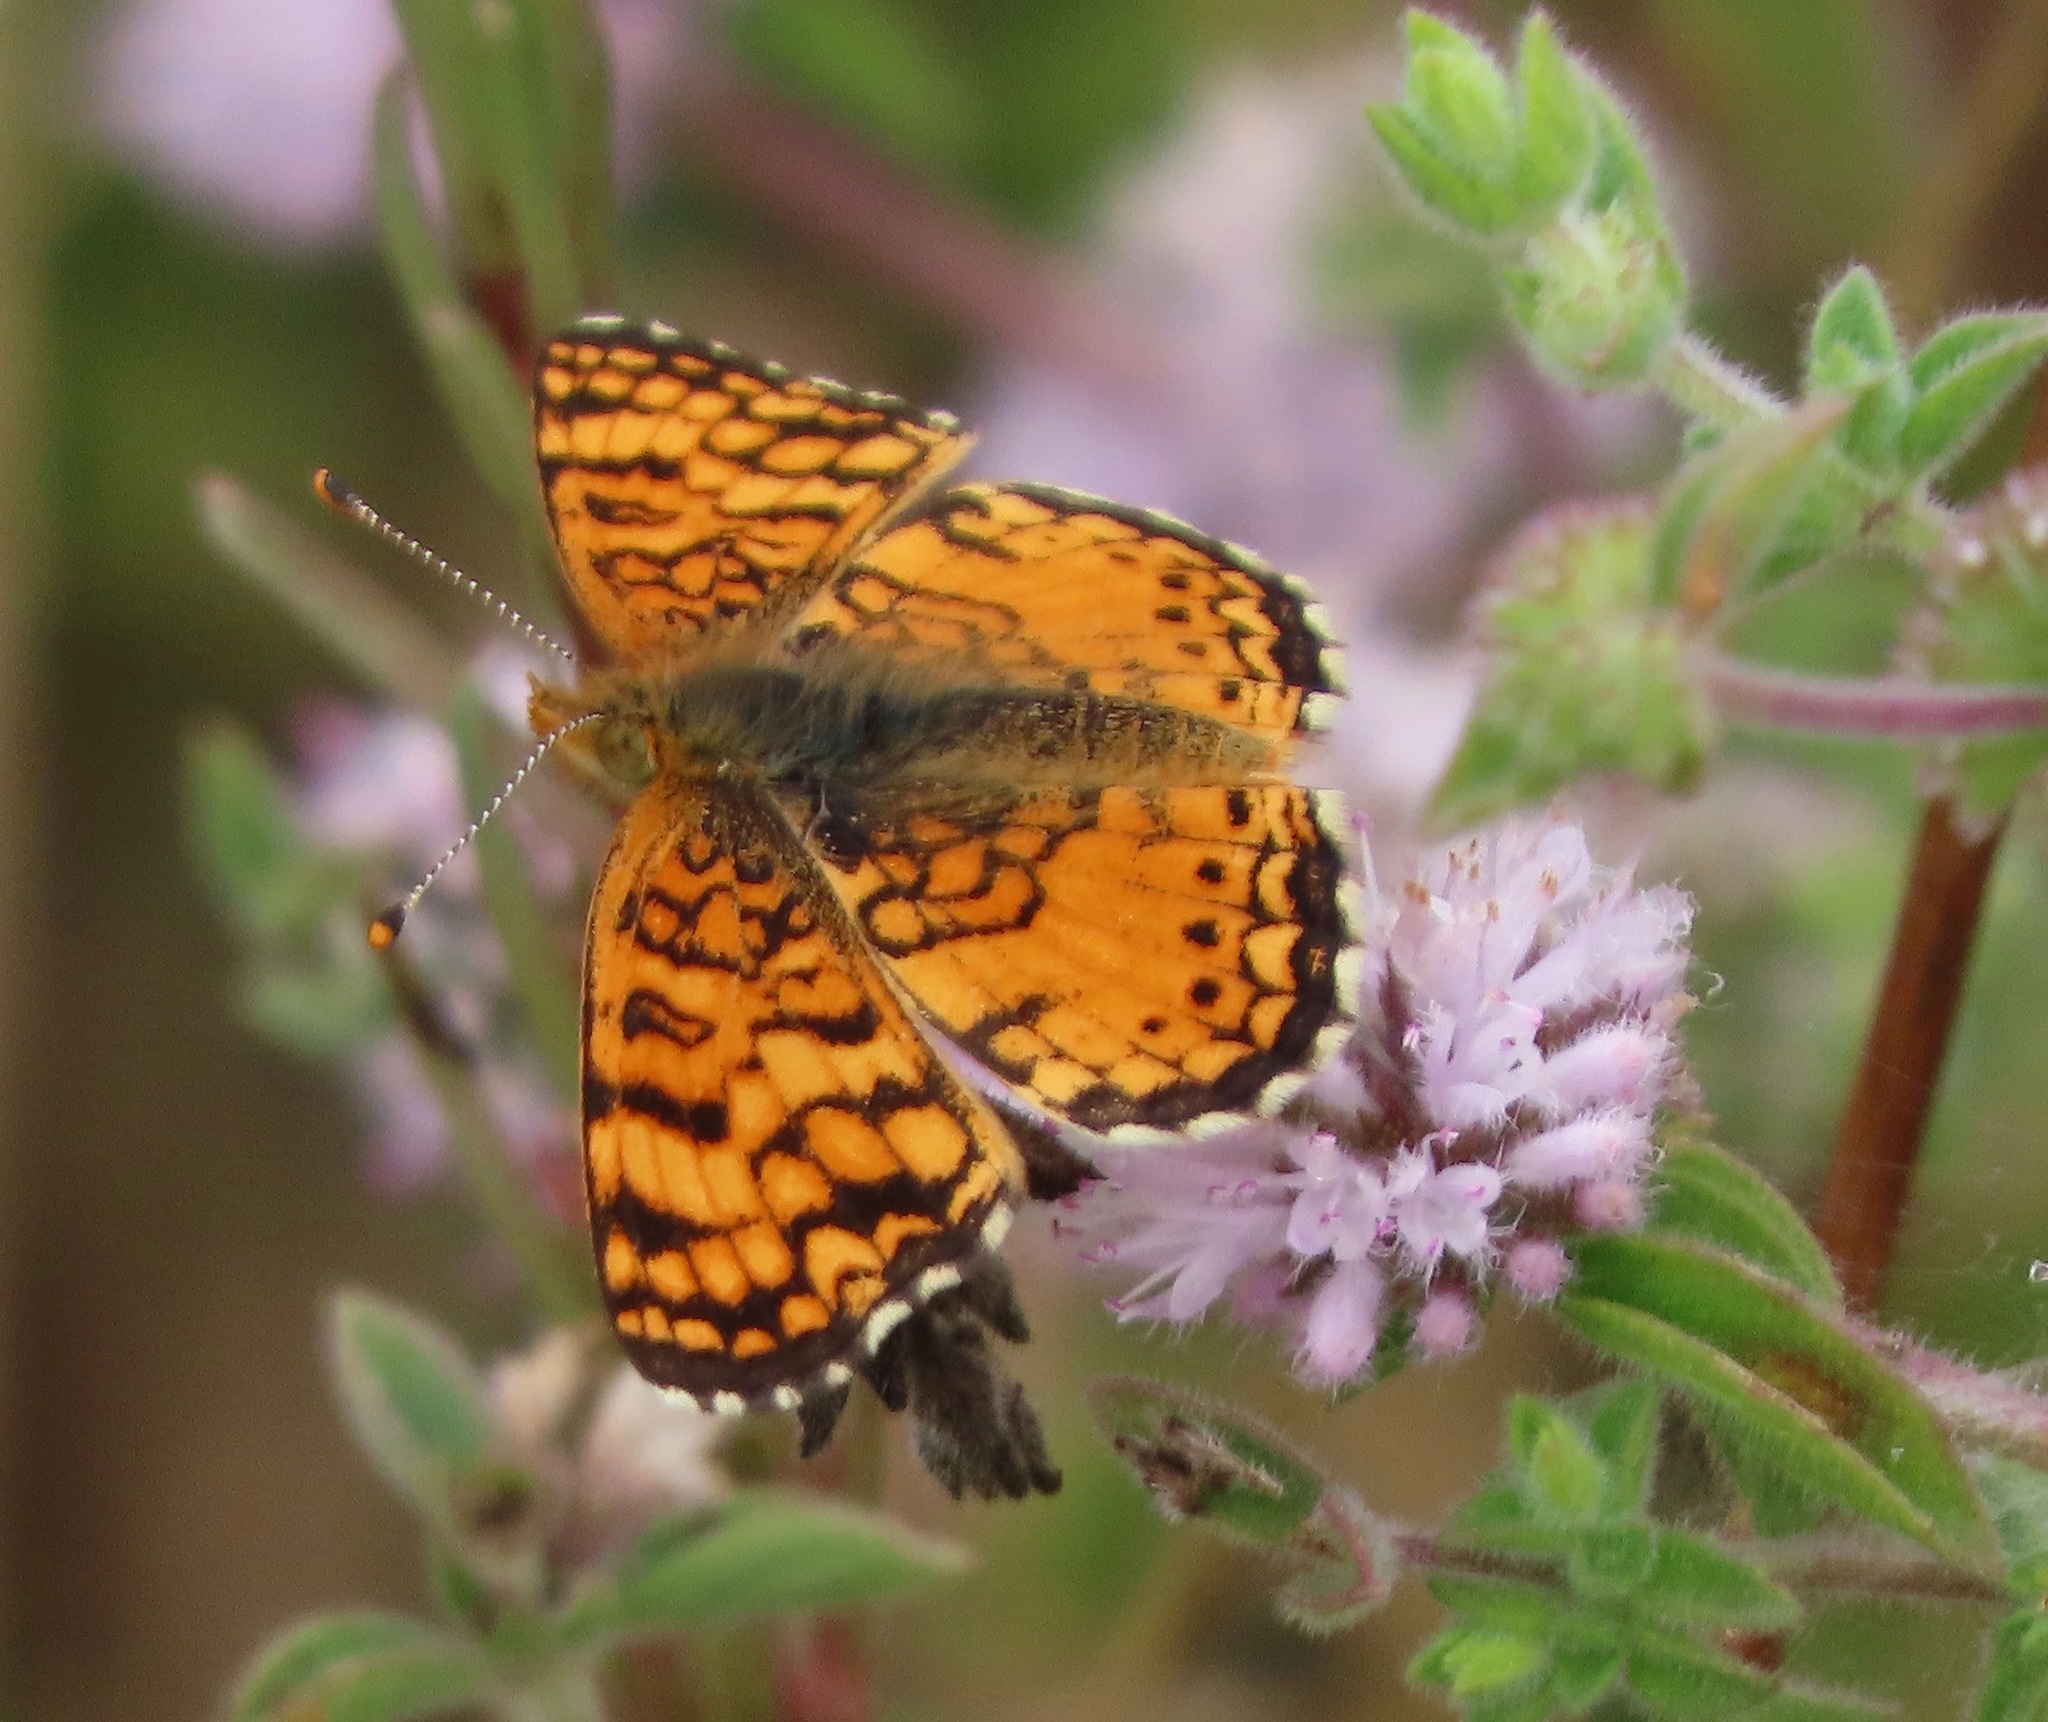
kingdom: Animalia
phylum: Arthropoda
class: Insecta
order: Lepidoptera
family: Nymphalidae
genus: Eresia
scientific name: Eresia aveyrona
